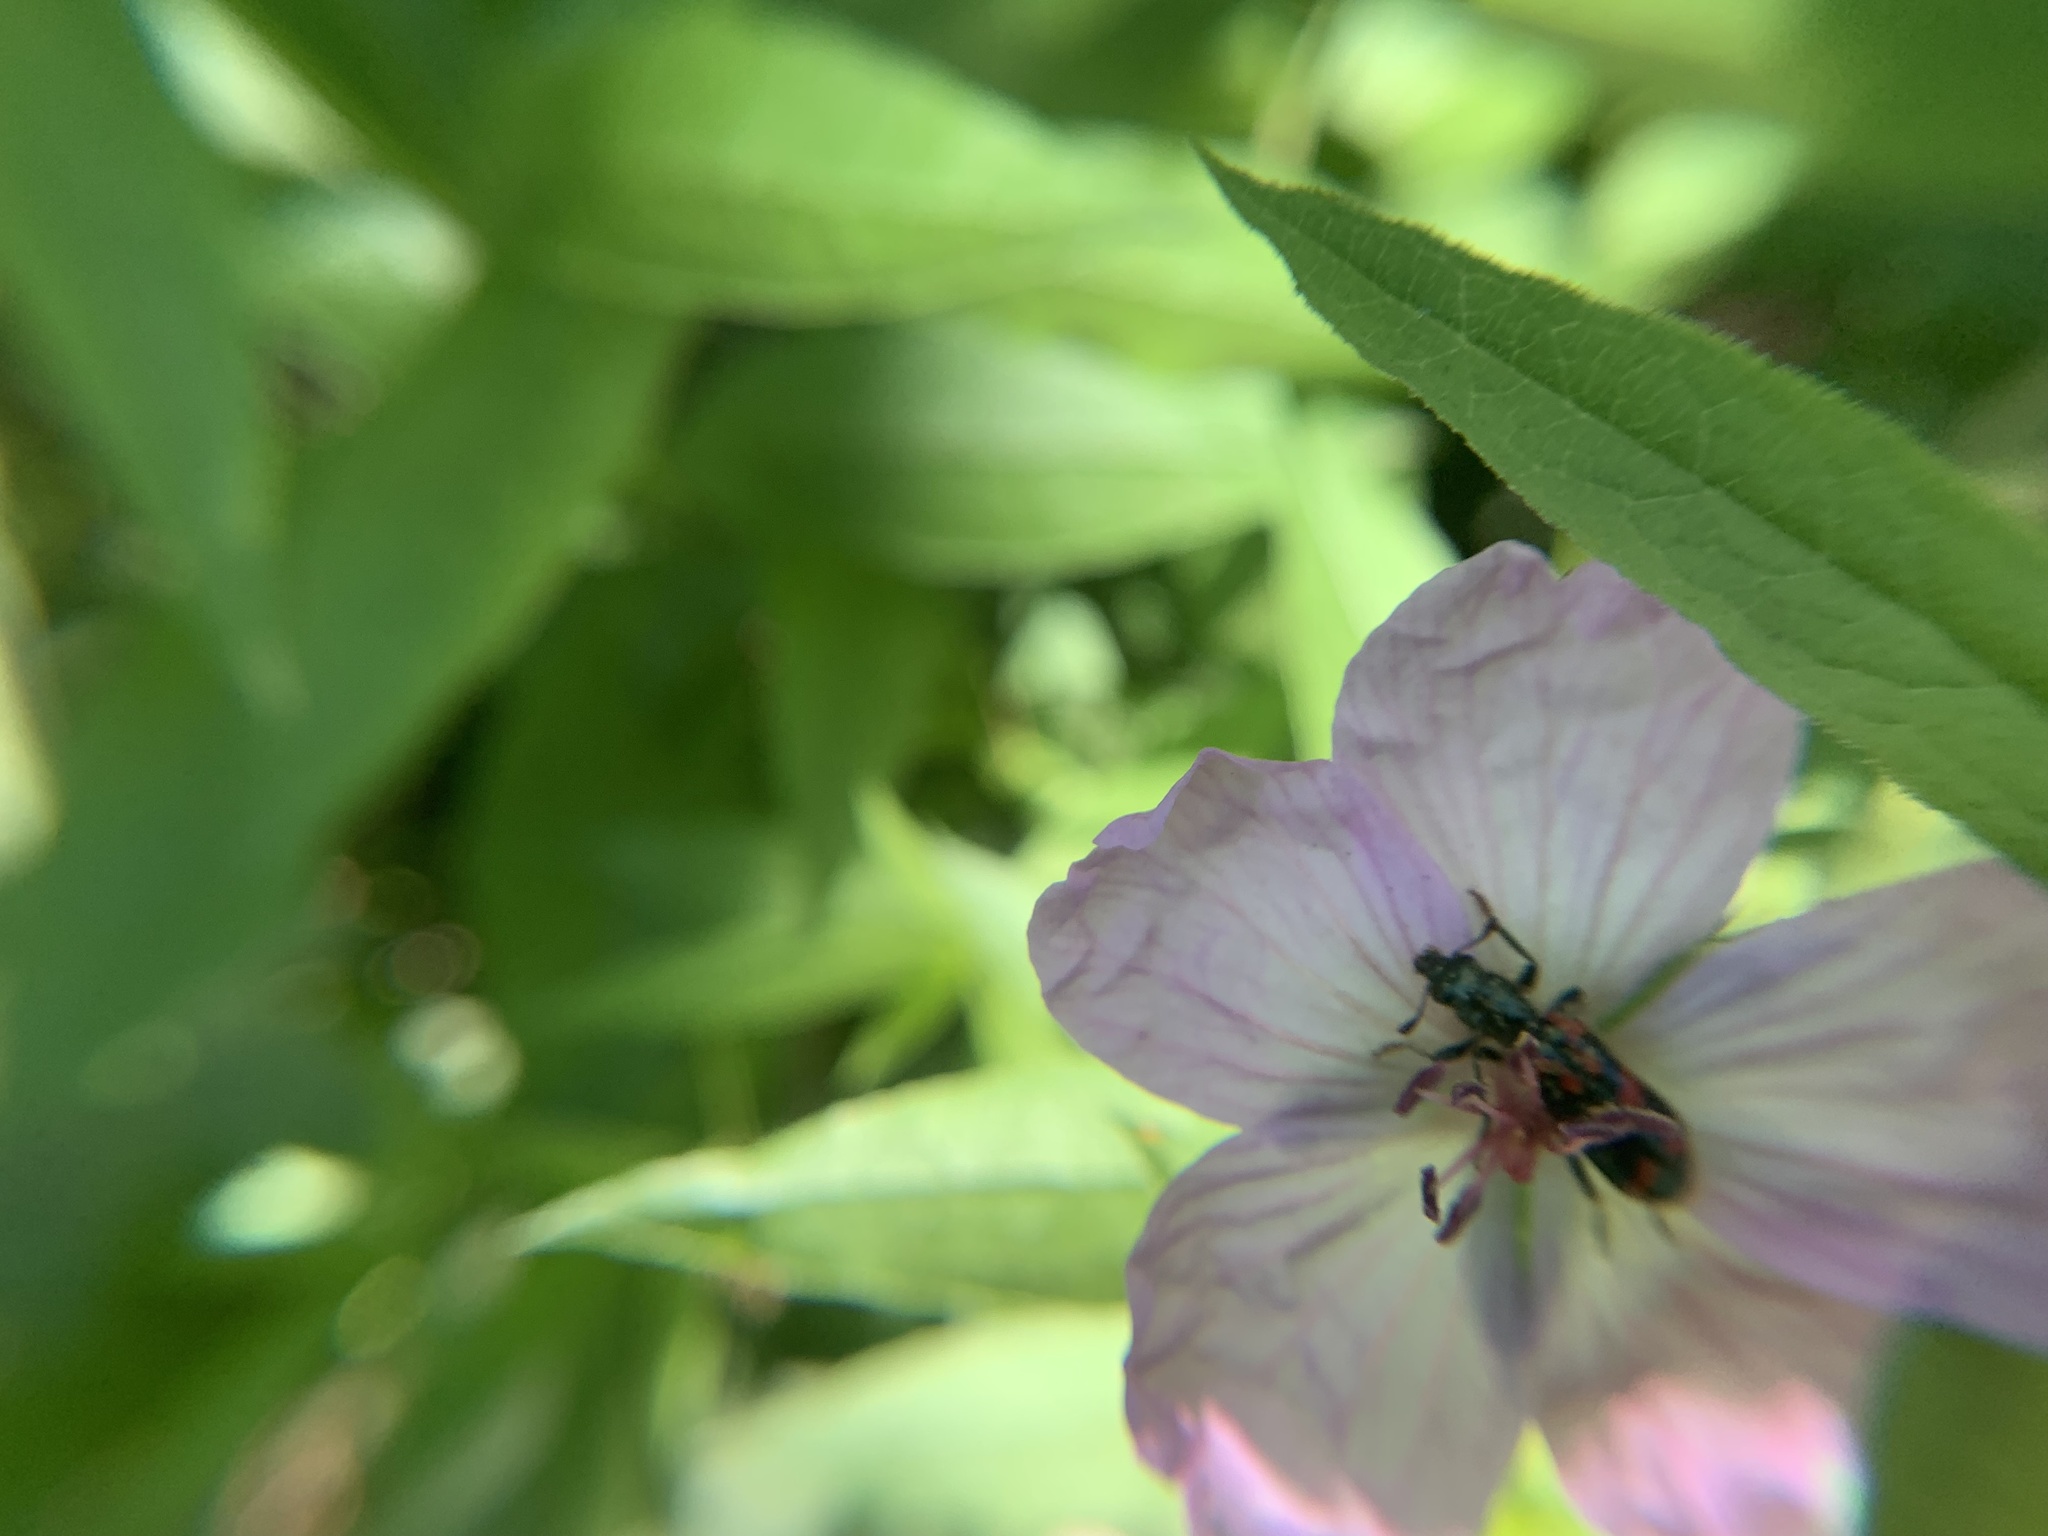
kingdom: Animalia
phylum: Arthropoda
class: Insecta
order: Coleoptera
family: Cleridae
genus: Trichodes
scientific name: Trichodes ornatus
